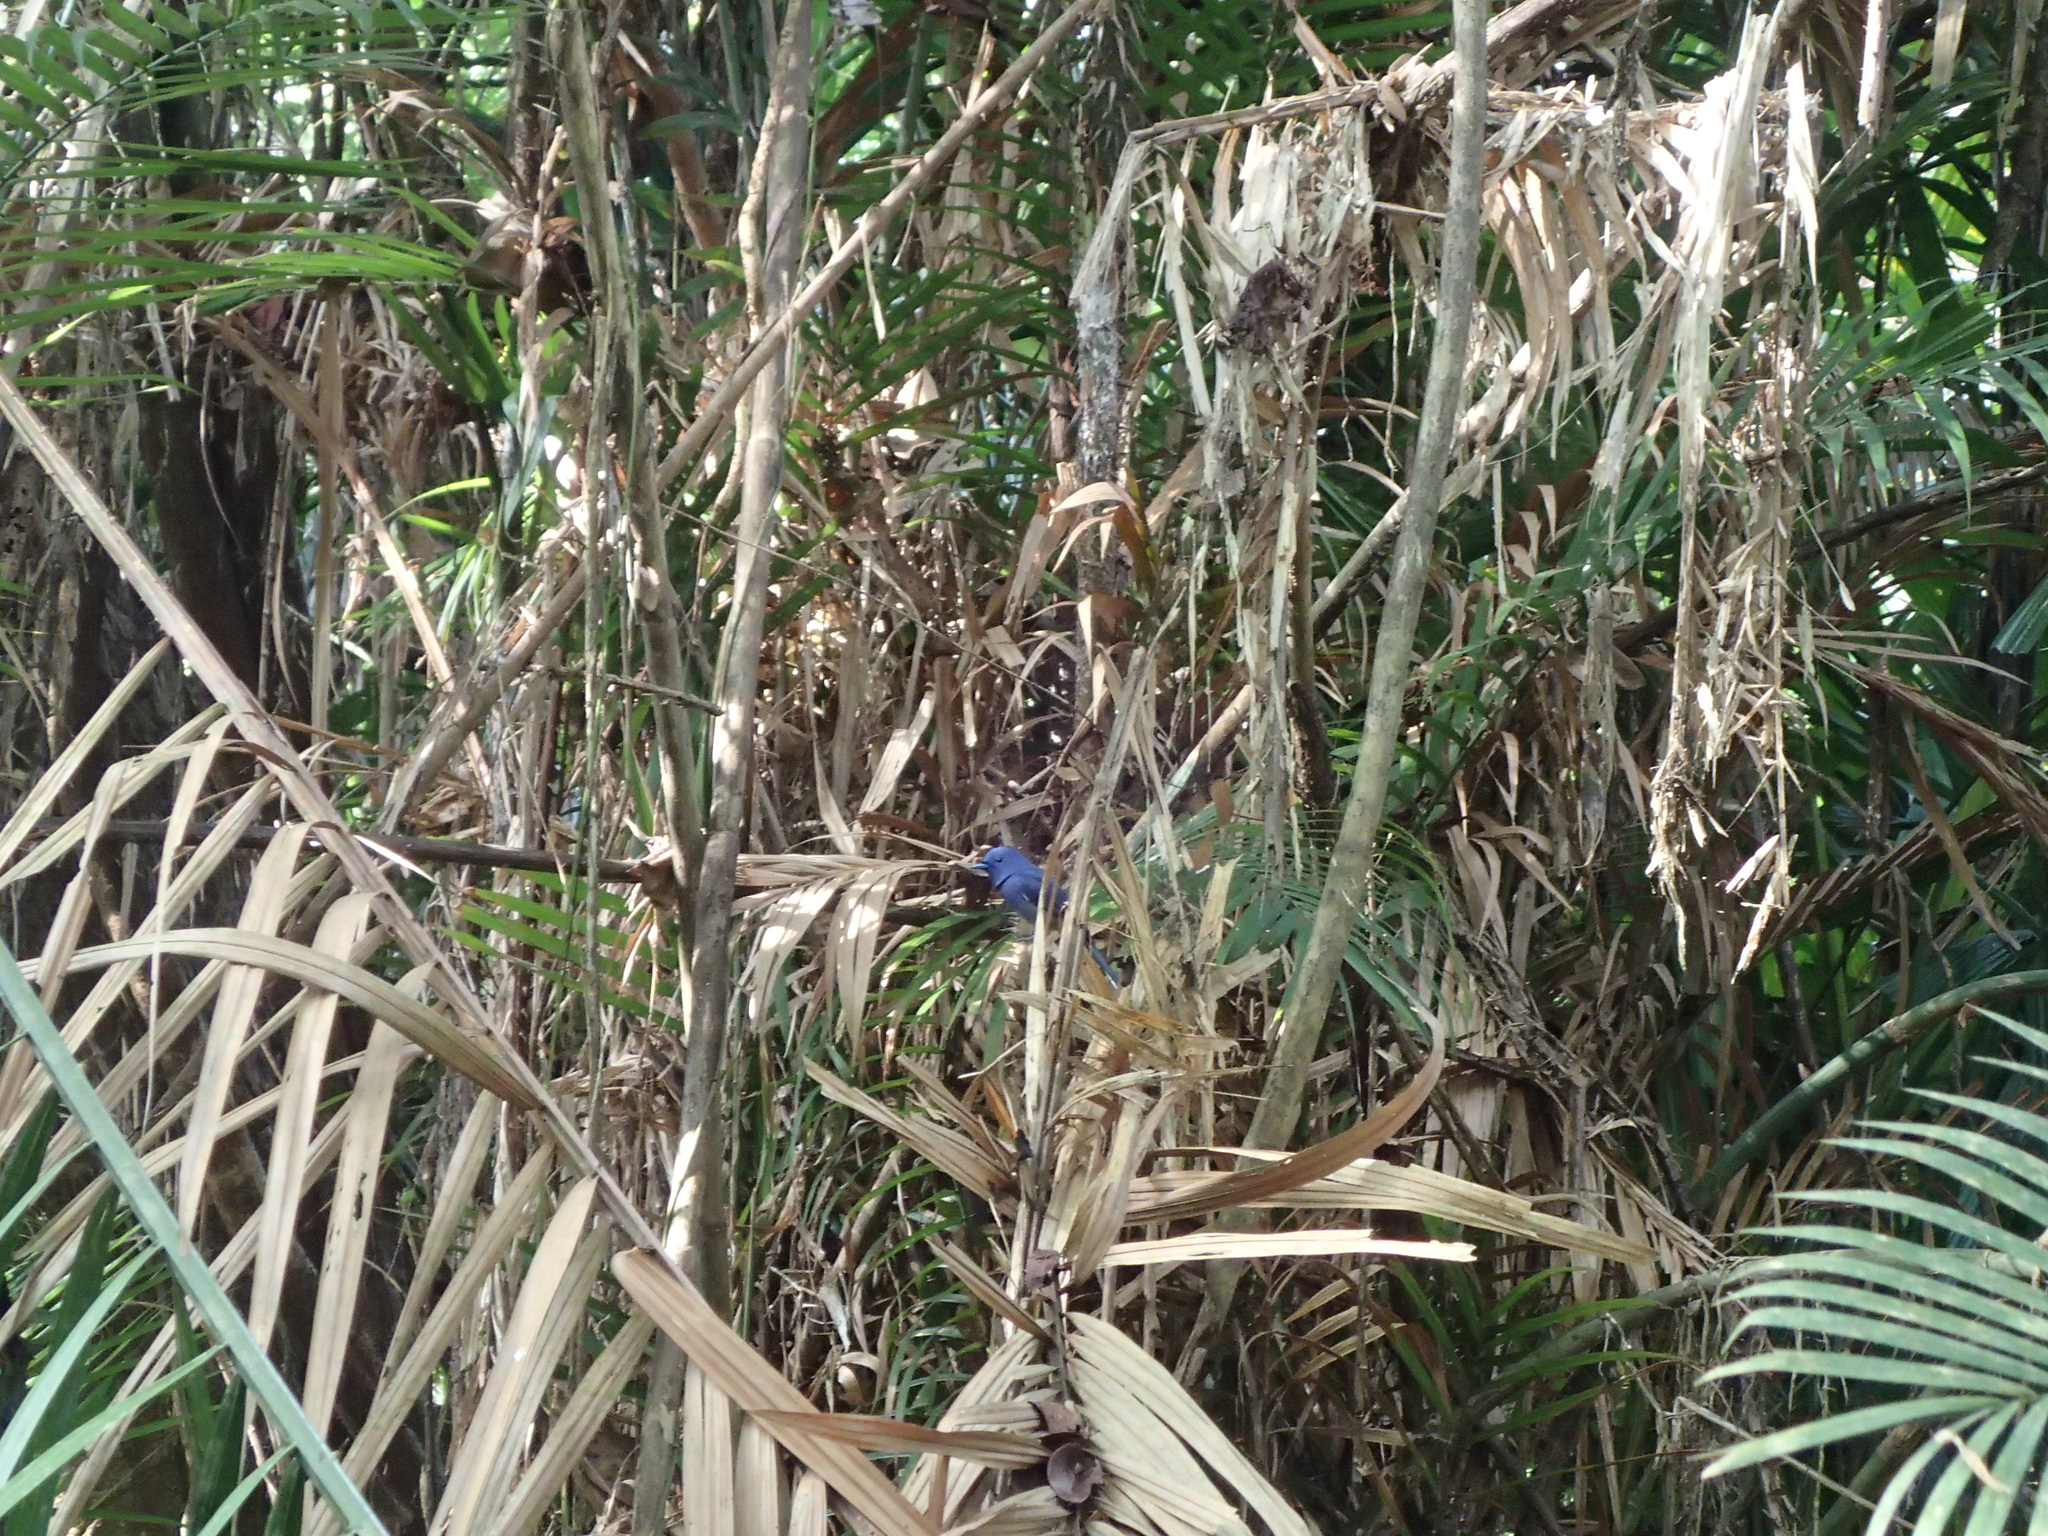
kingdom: Animalia
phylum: Chordata
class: Aves
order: Passeriformes
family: Monarchidae
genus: Hypothymis
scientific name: Hypothymis azurea
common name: Black-naped monarch
